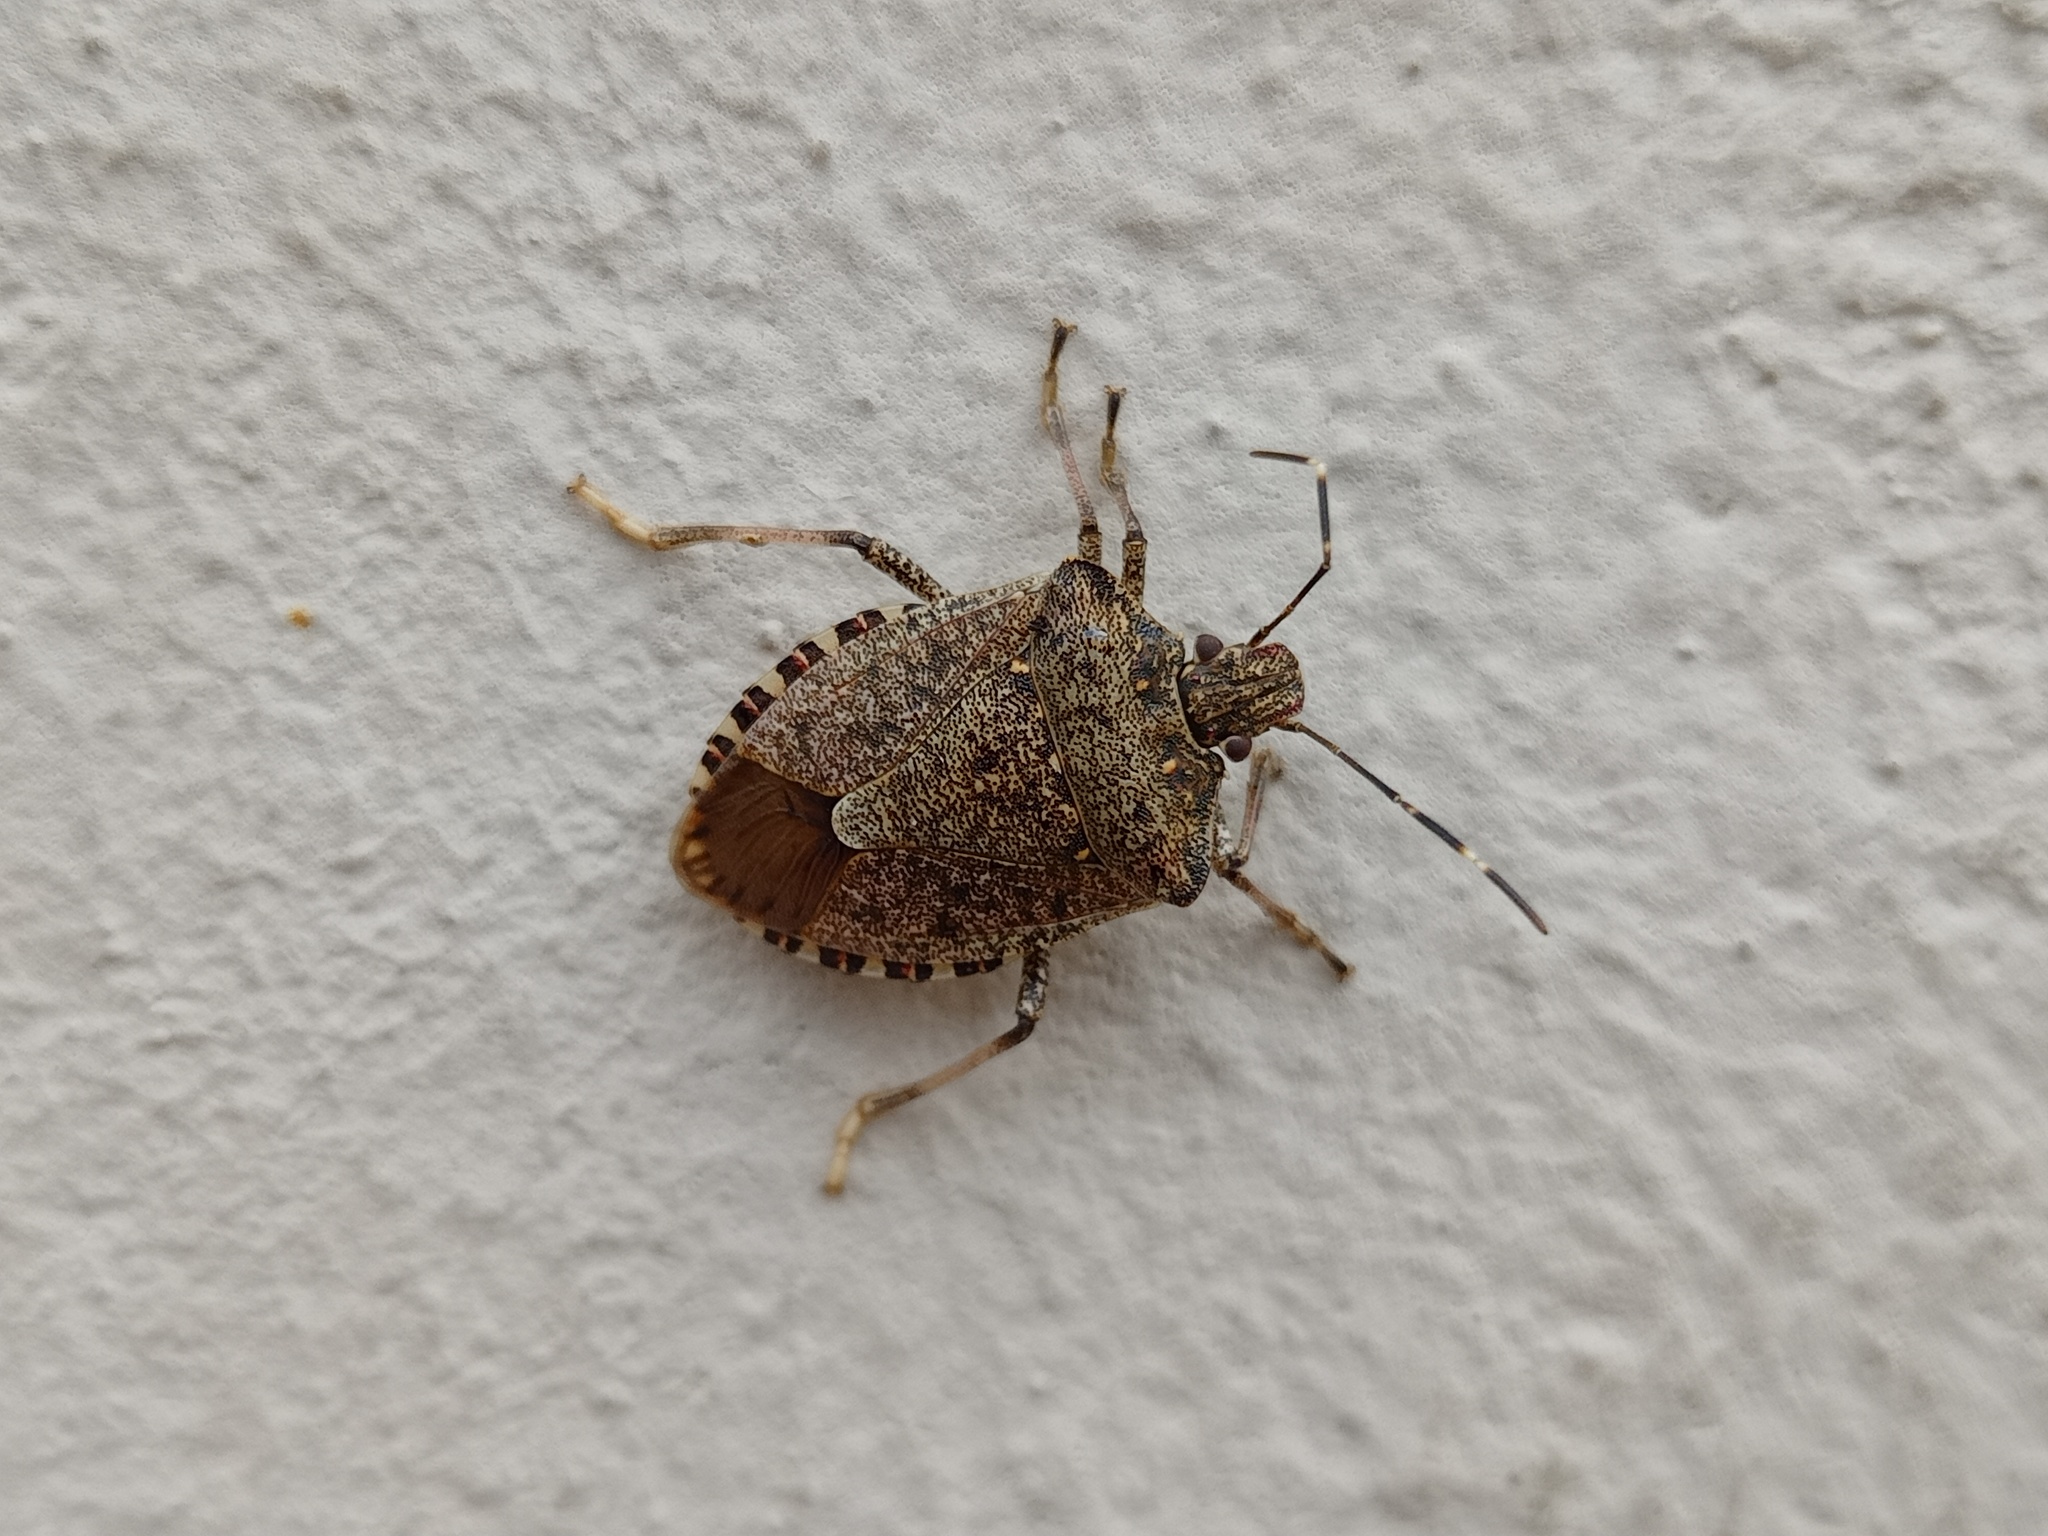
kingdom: Animalia
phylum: Arthropoda
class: Insecta
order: Hemiptera
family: Pentatomidae
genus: Halyomorpha
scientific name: Halyomorpha halys
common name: Brown marmorated stink bug
